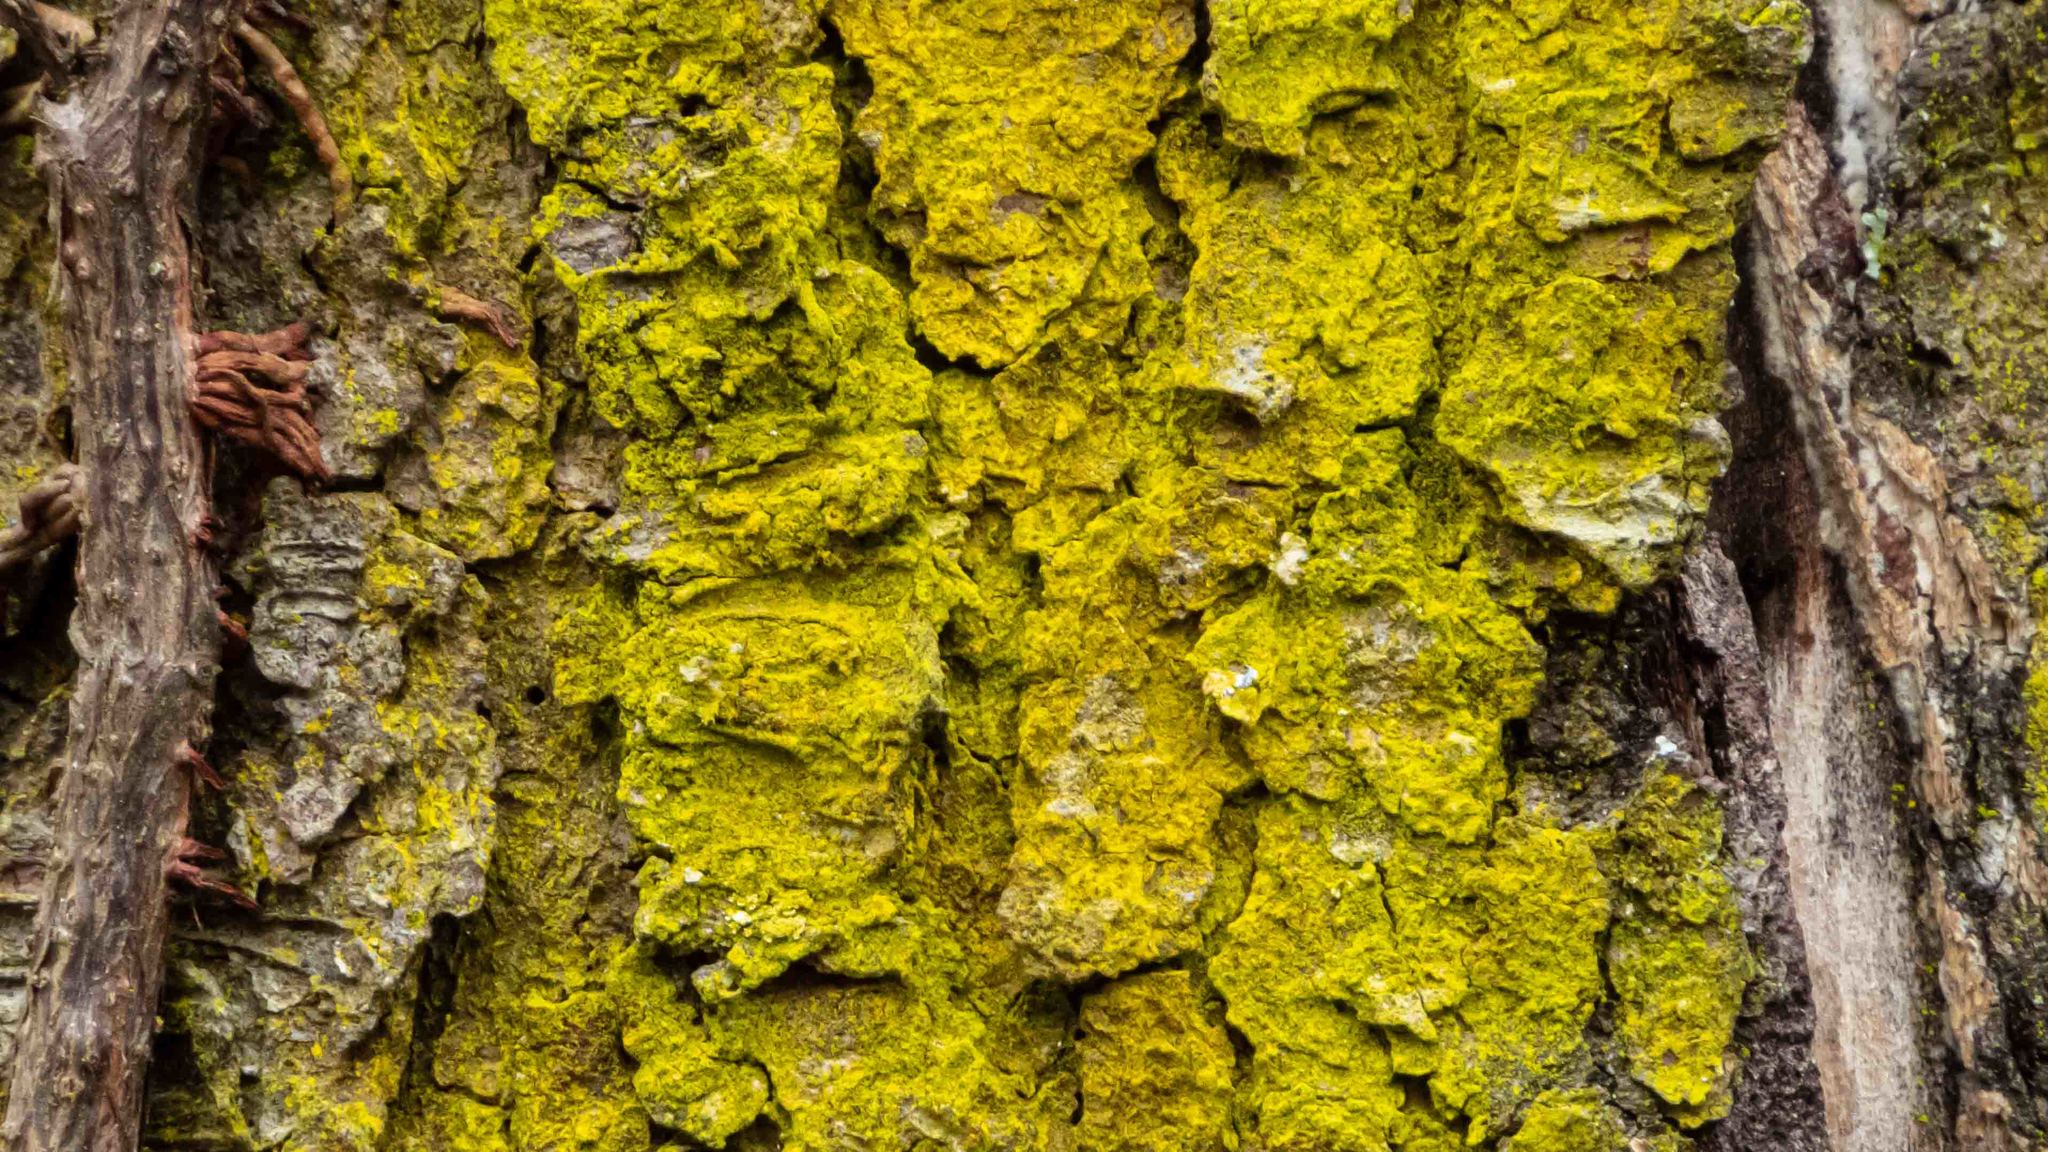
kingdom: Fungi
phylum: Ascomycota
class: Arthoniomycetes
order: Arthoniales
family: Chrysotrichaceae
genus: Chrysothrix
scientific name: Chrysothrix candelaris
